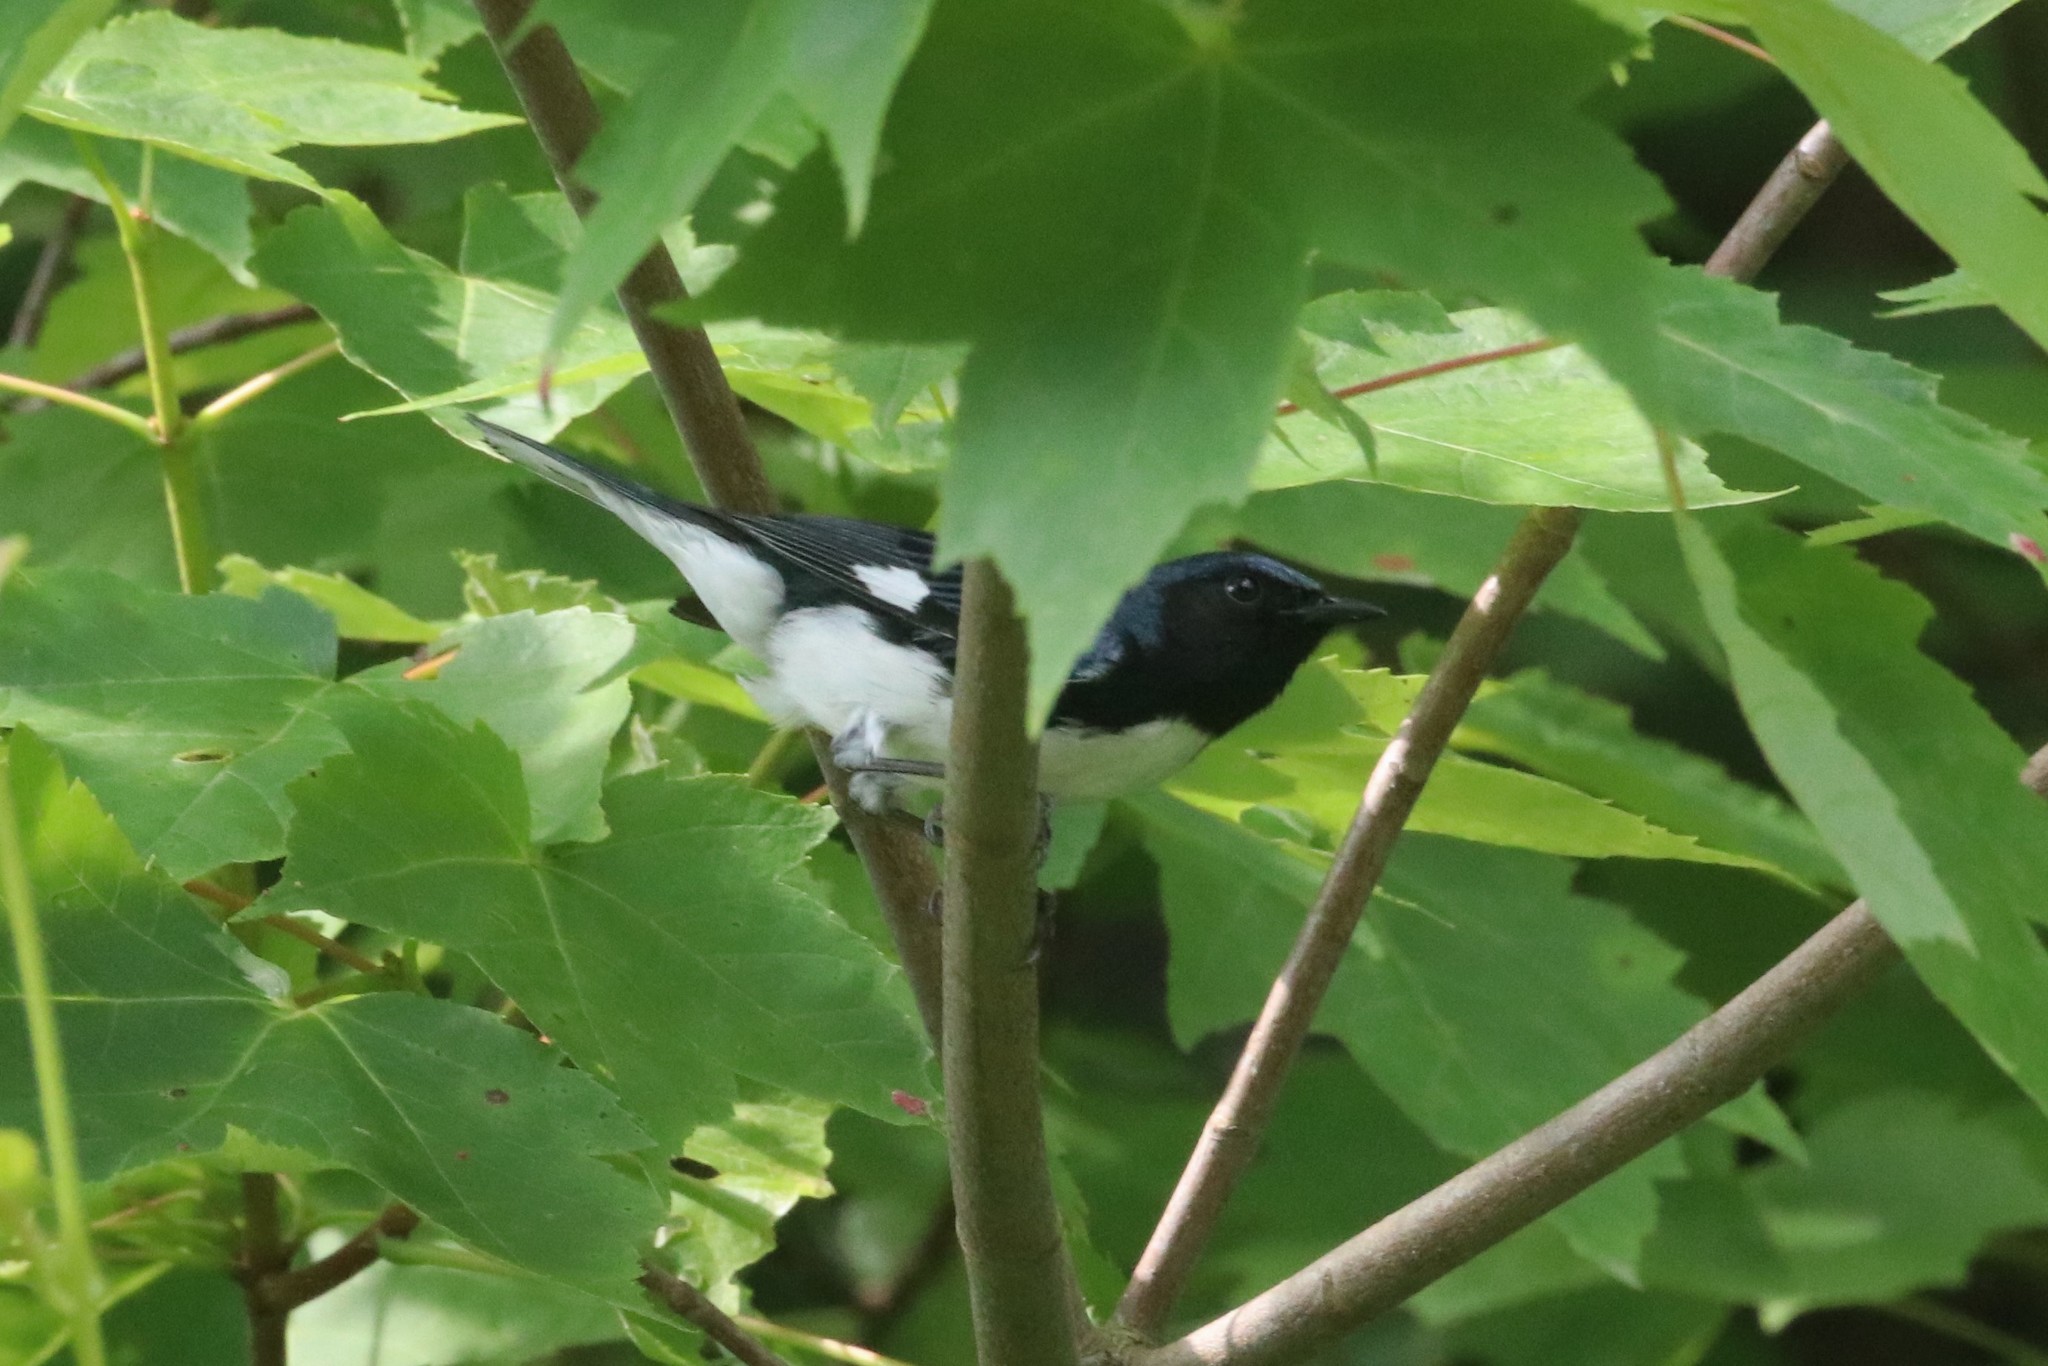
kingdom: Animalia
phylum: Chordata
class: Aves
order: Passeriformes
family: Parulidae
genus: Setophaga
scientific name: Setophaga caerulescens
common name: Black-throated blue warbler
